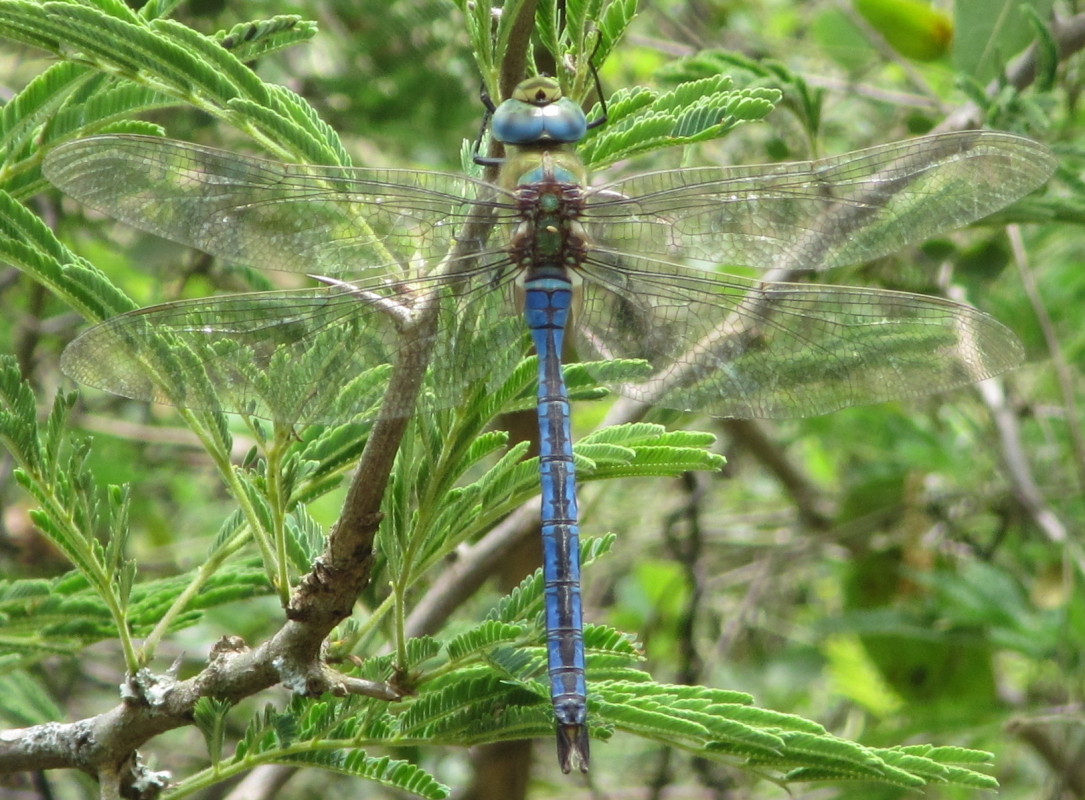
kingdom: Animalia
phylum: Arthropoda
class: Insecta
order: Odonata
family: Aeshnidae
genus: Anax
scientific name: Anax imperator
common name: Emperor dragonfly
